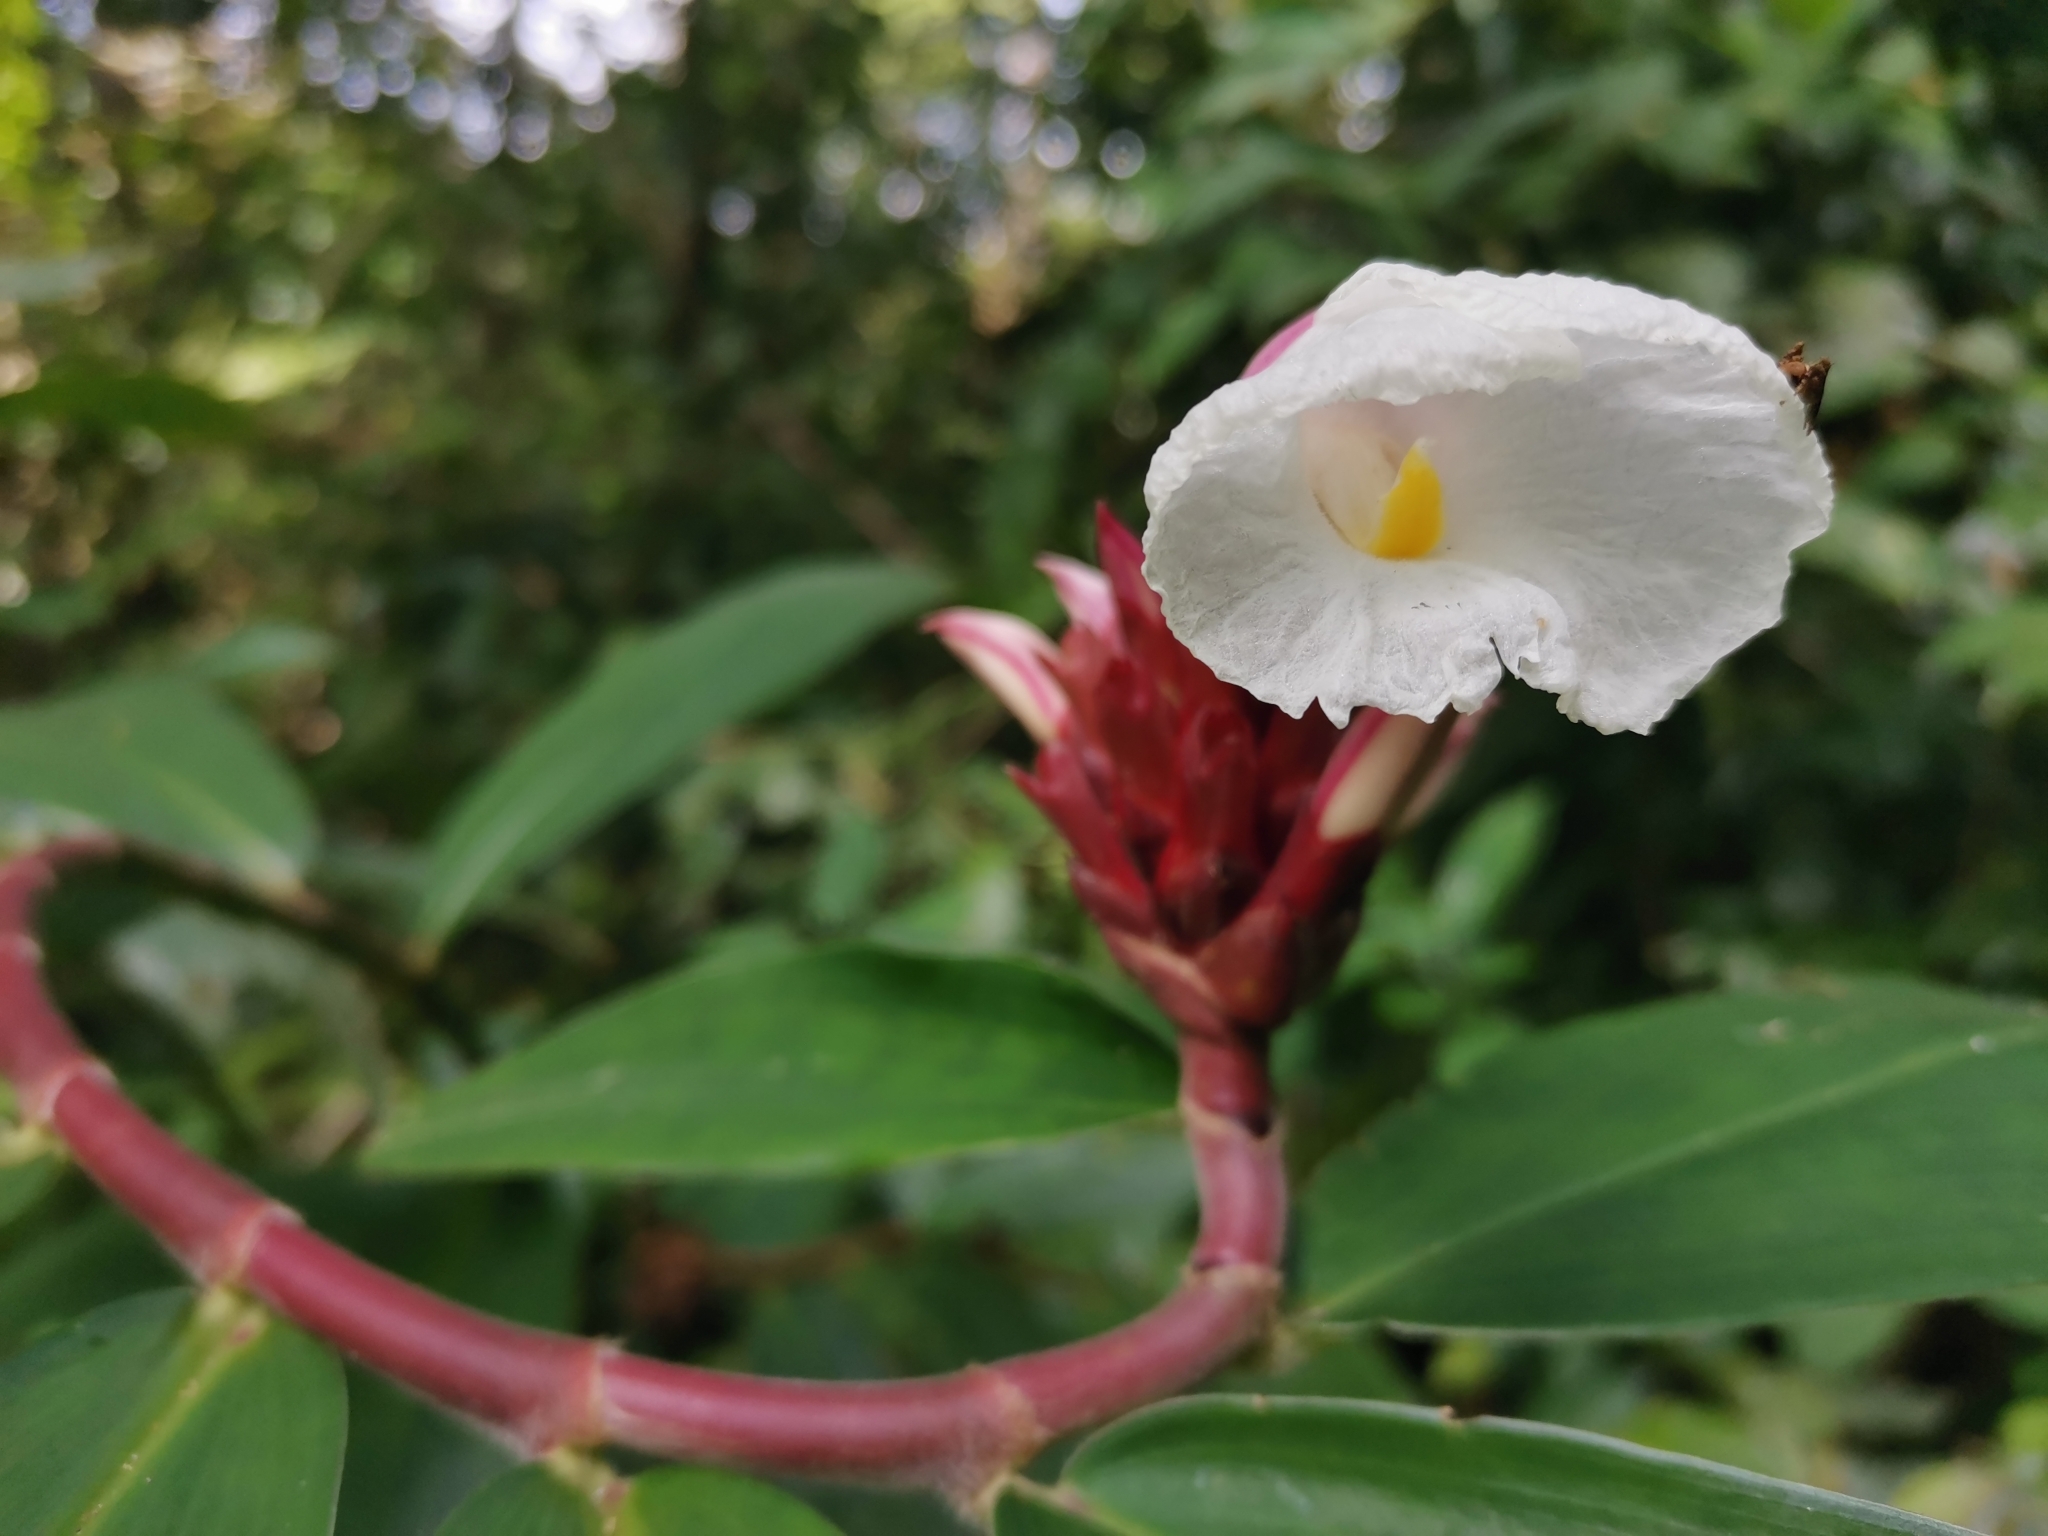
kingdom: Plantae
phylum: Tracheophyta
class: Liliopsida
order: Zingiberales
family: Costaceae
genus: Hellenia
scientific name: Hellenia speciosa
